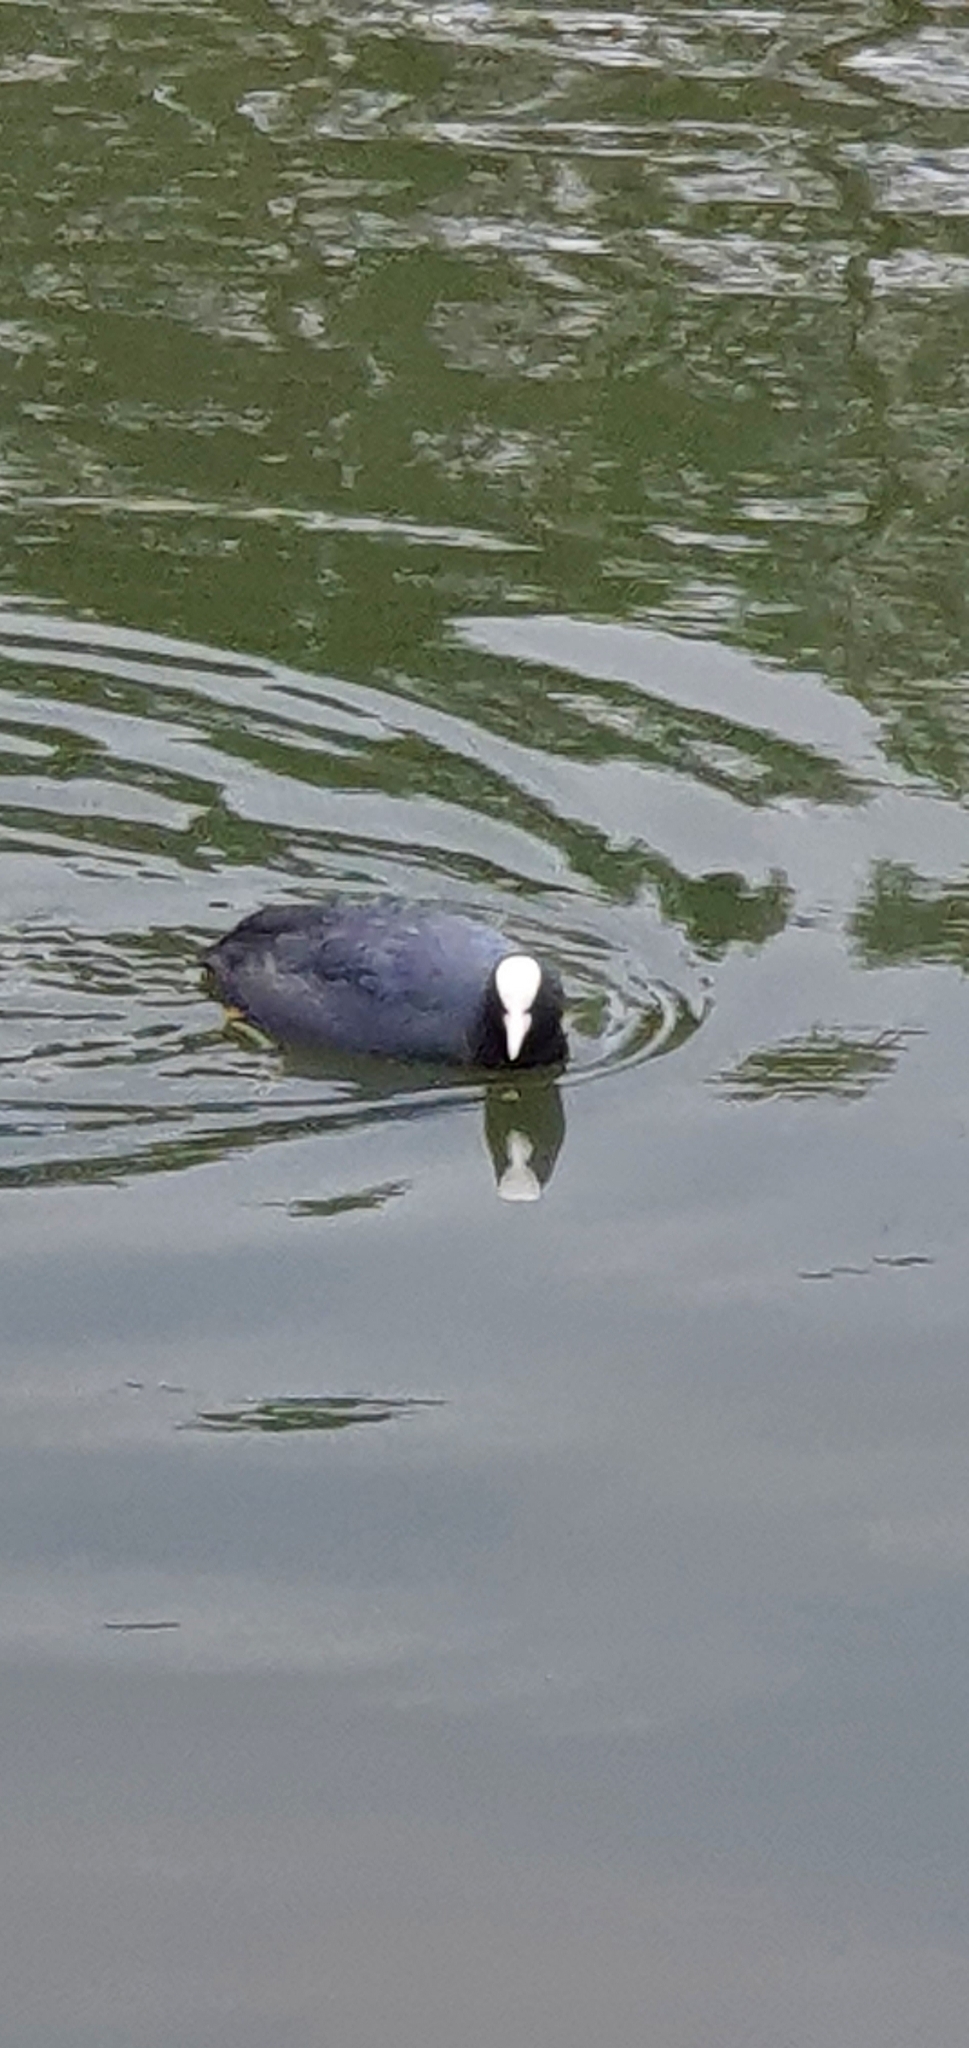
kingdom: Animalia
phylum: Chordata
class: Aves
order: Gruiformes
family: Rallidae
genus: Fulica
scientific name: Fulica atra
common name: Eurasian coot
